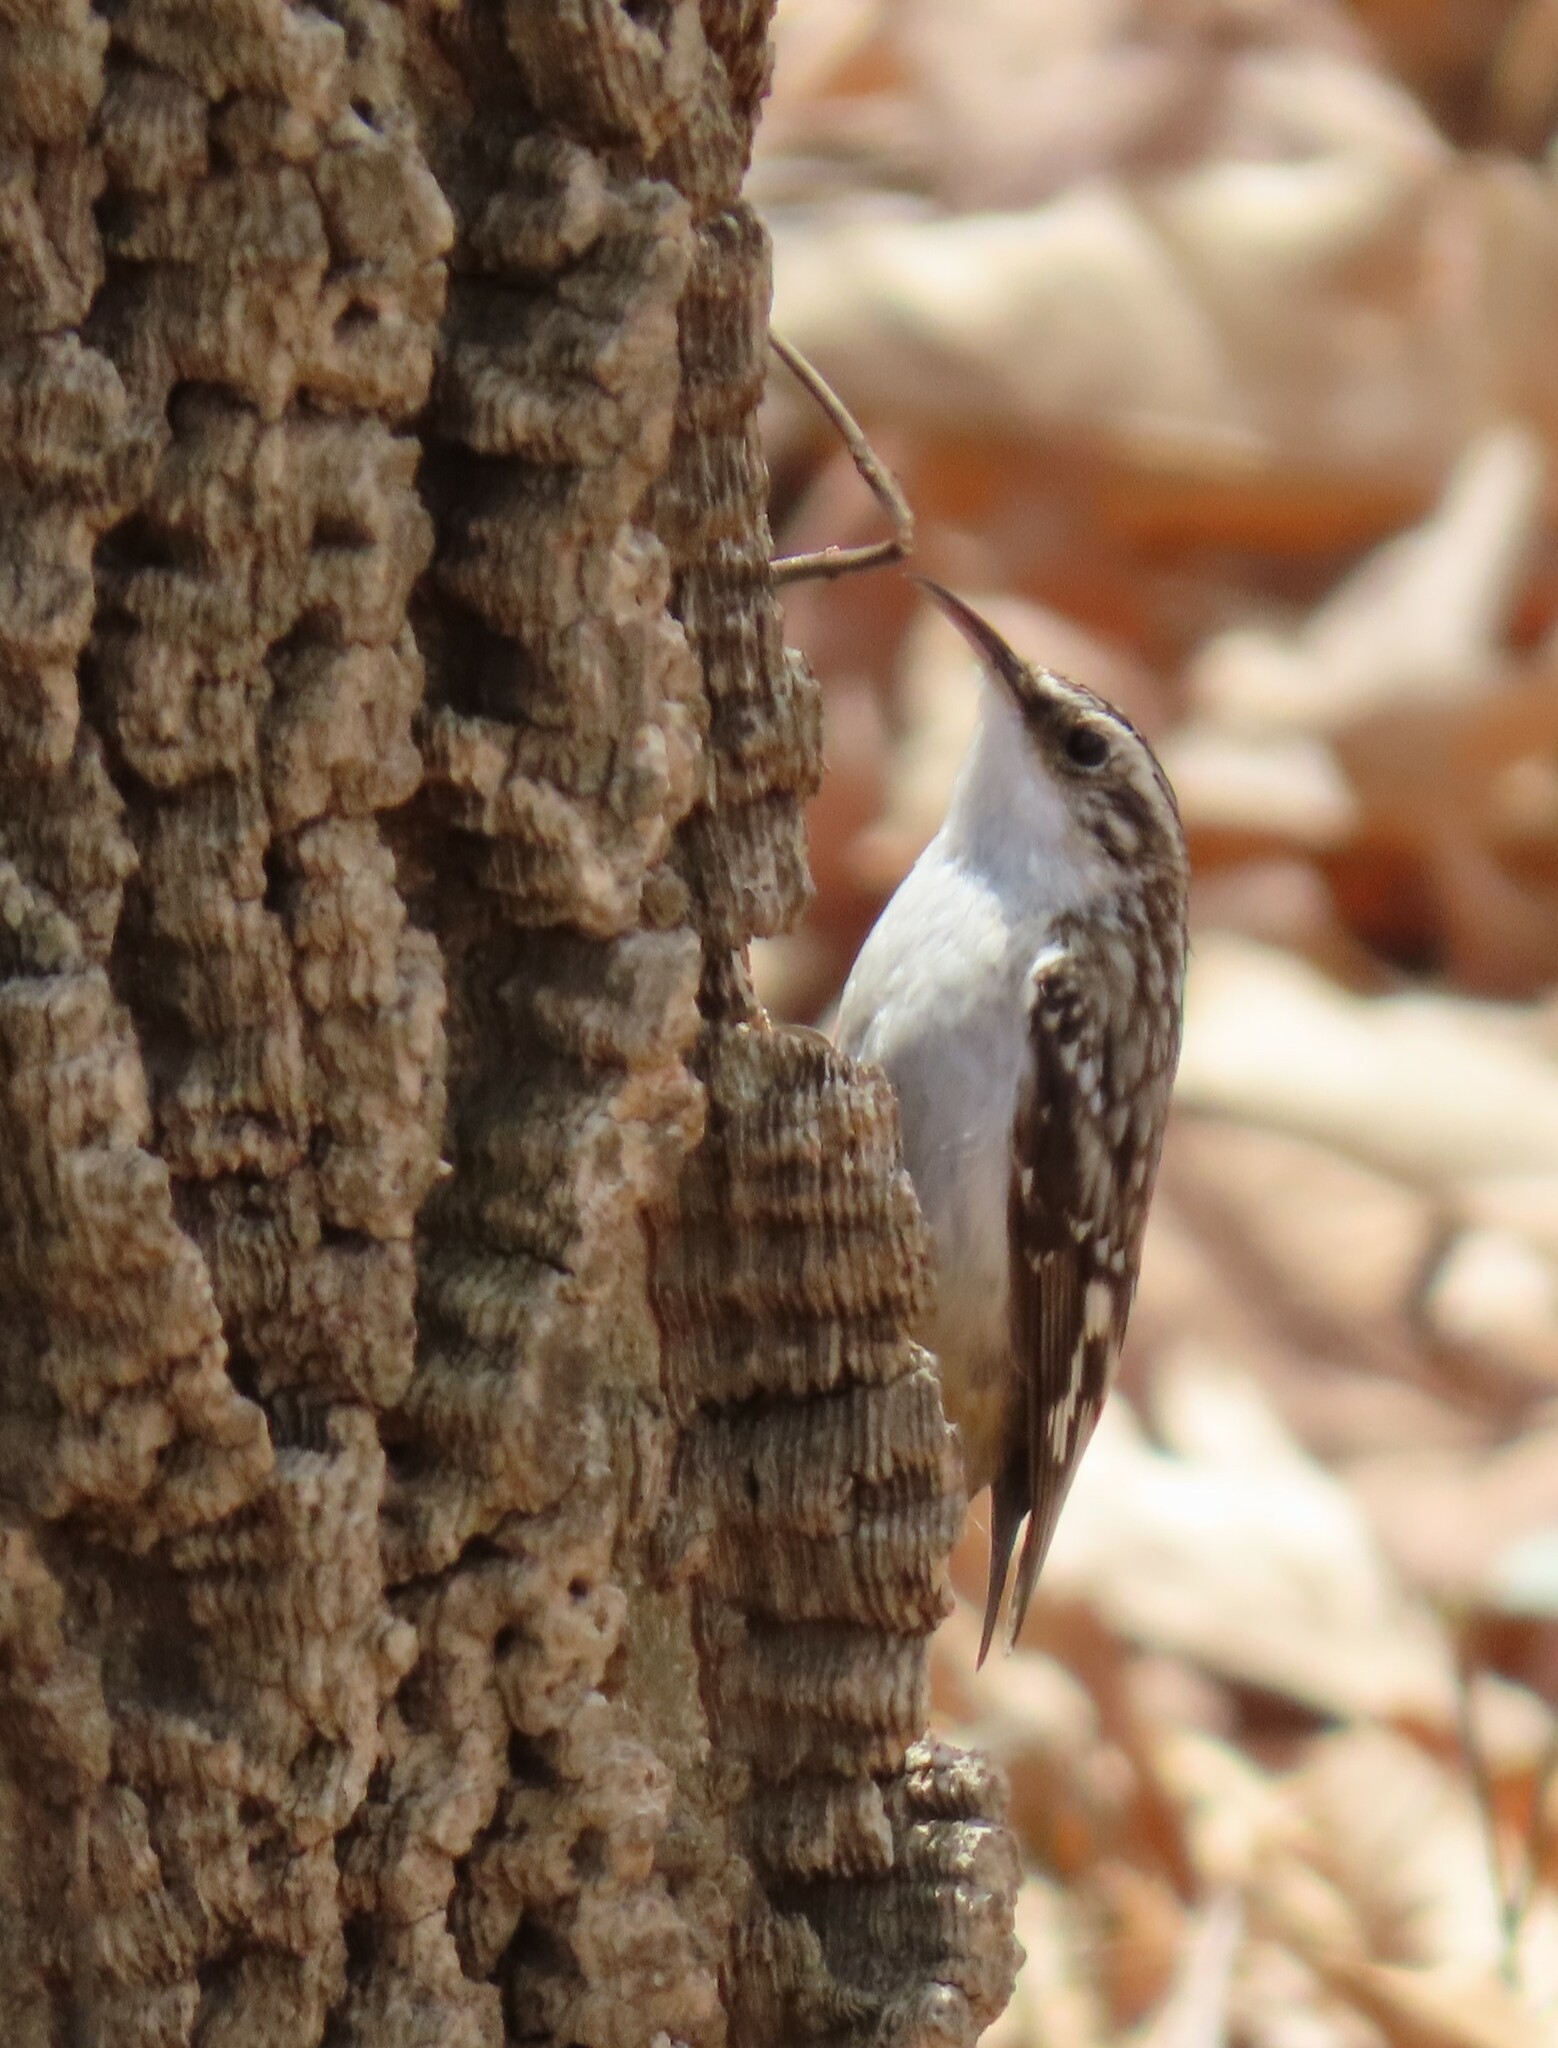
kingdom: Animalia
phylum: Chordata
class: Aves
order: Passeriformes
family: Certhiidae
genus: Certhia
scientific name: Certhia americana
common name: Brown creeper
